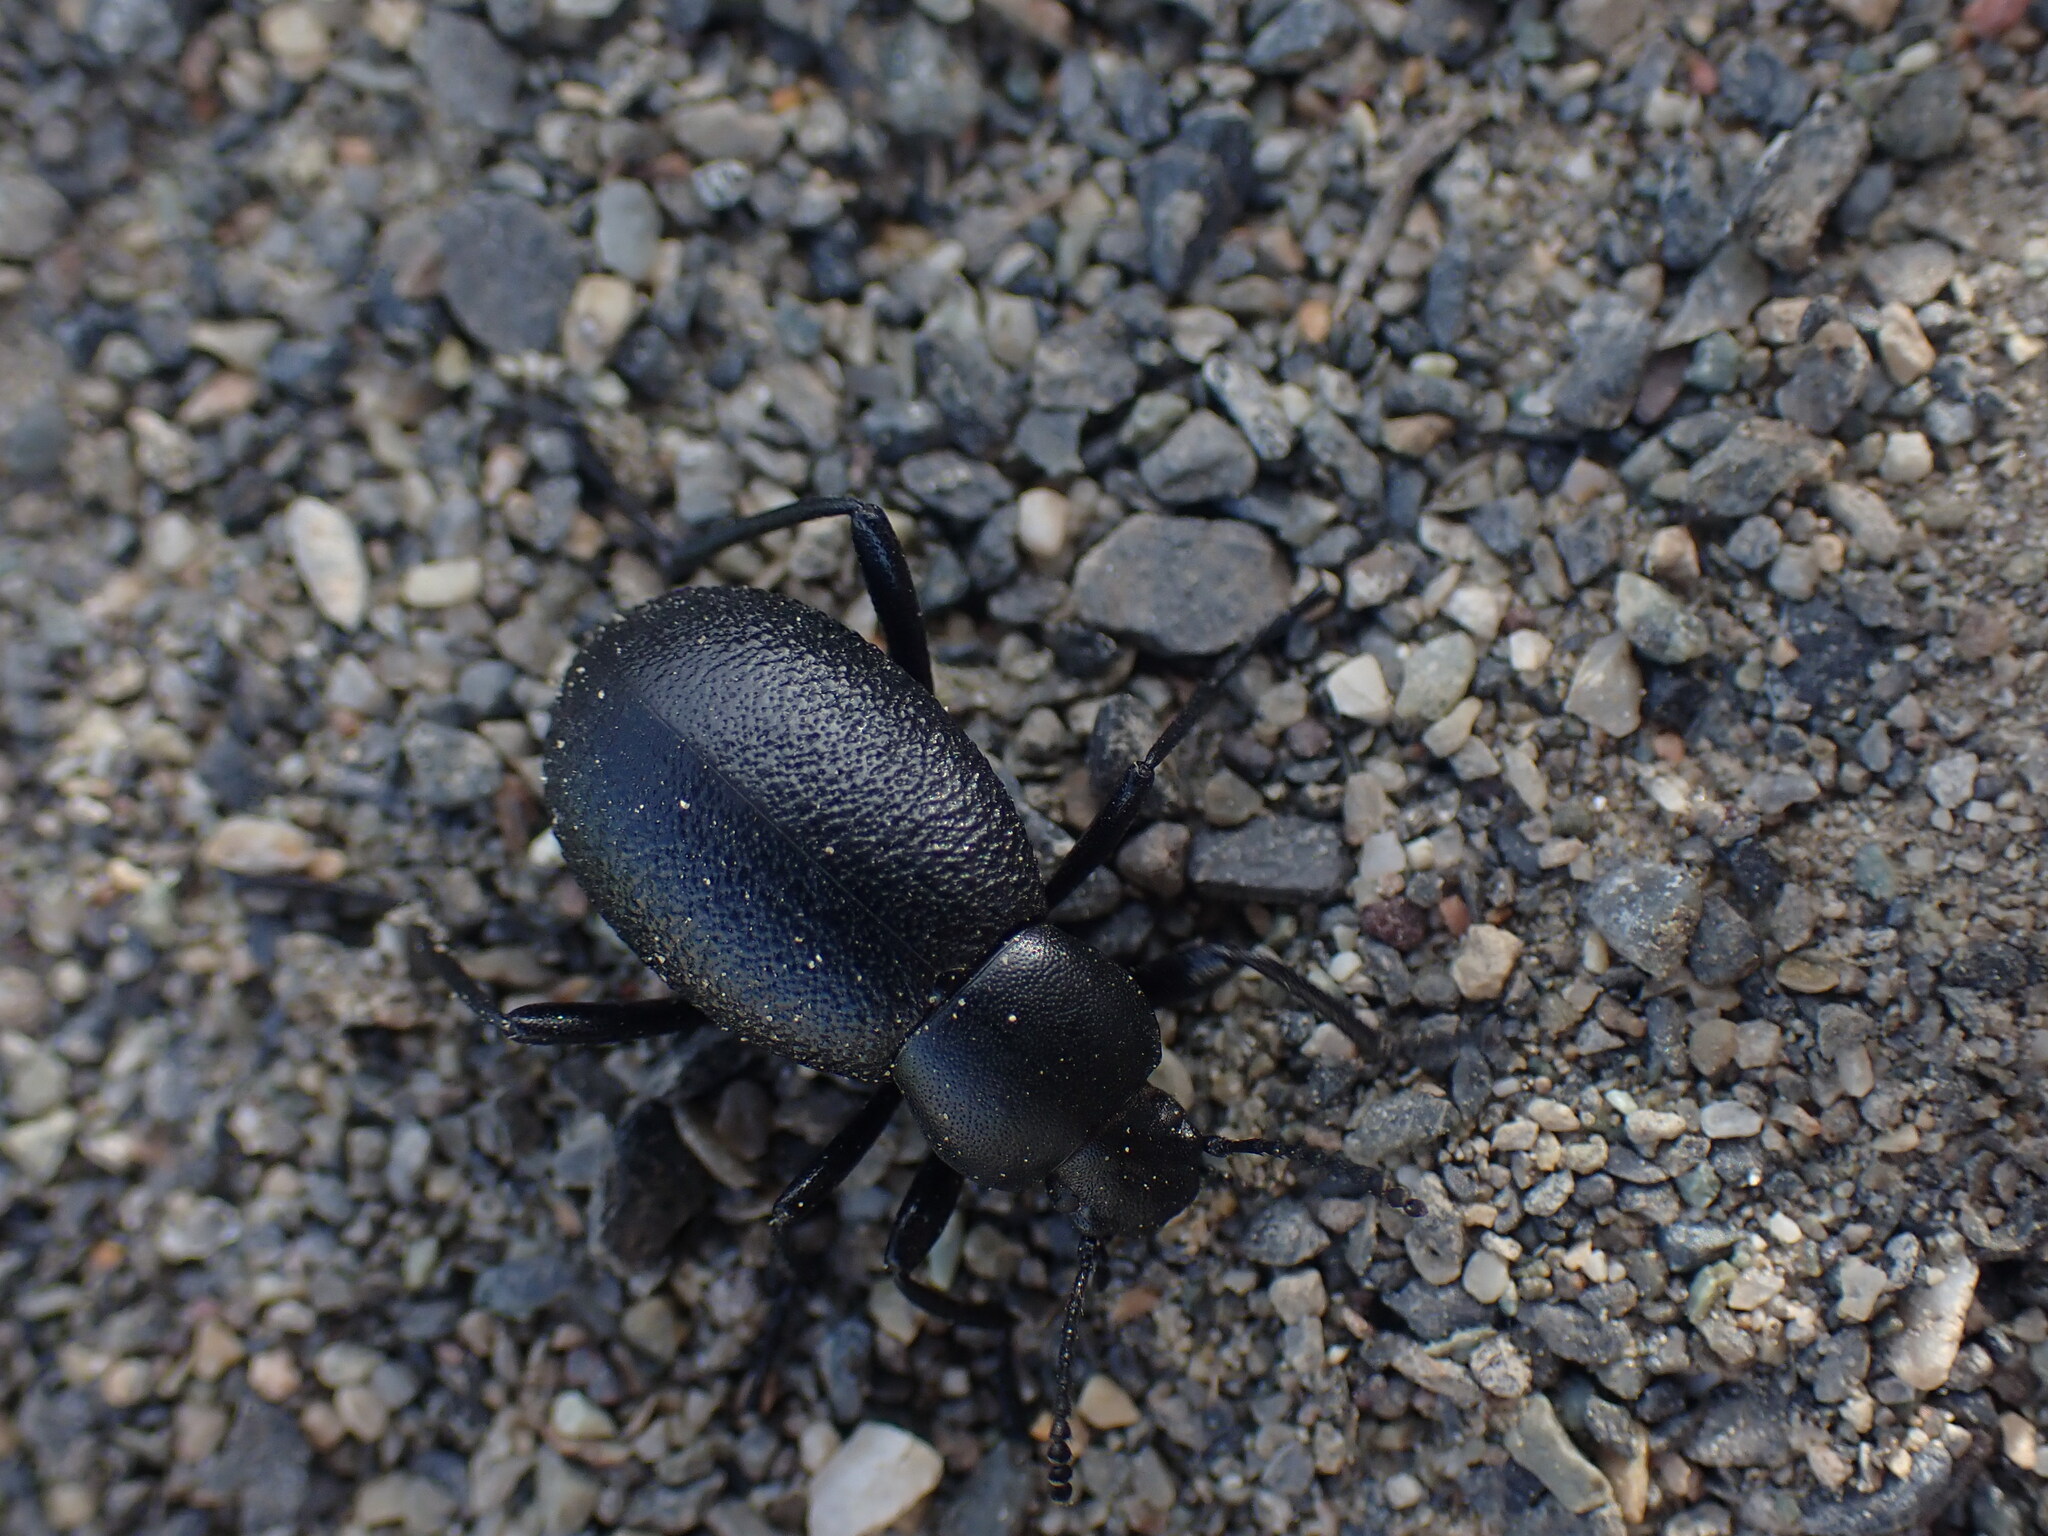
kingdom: Animalia
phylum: Arthropoda
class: Insecta
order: Coleoptera
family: Tenebrionidae
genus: Eleodes
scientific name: Eleodes granulata
